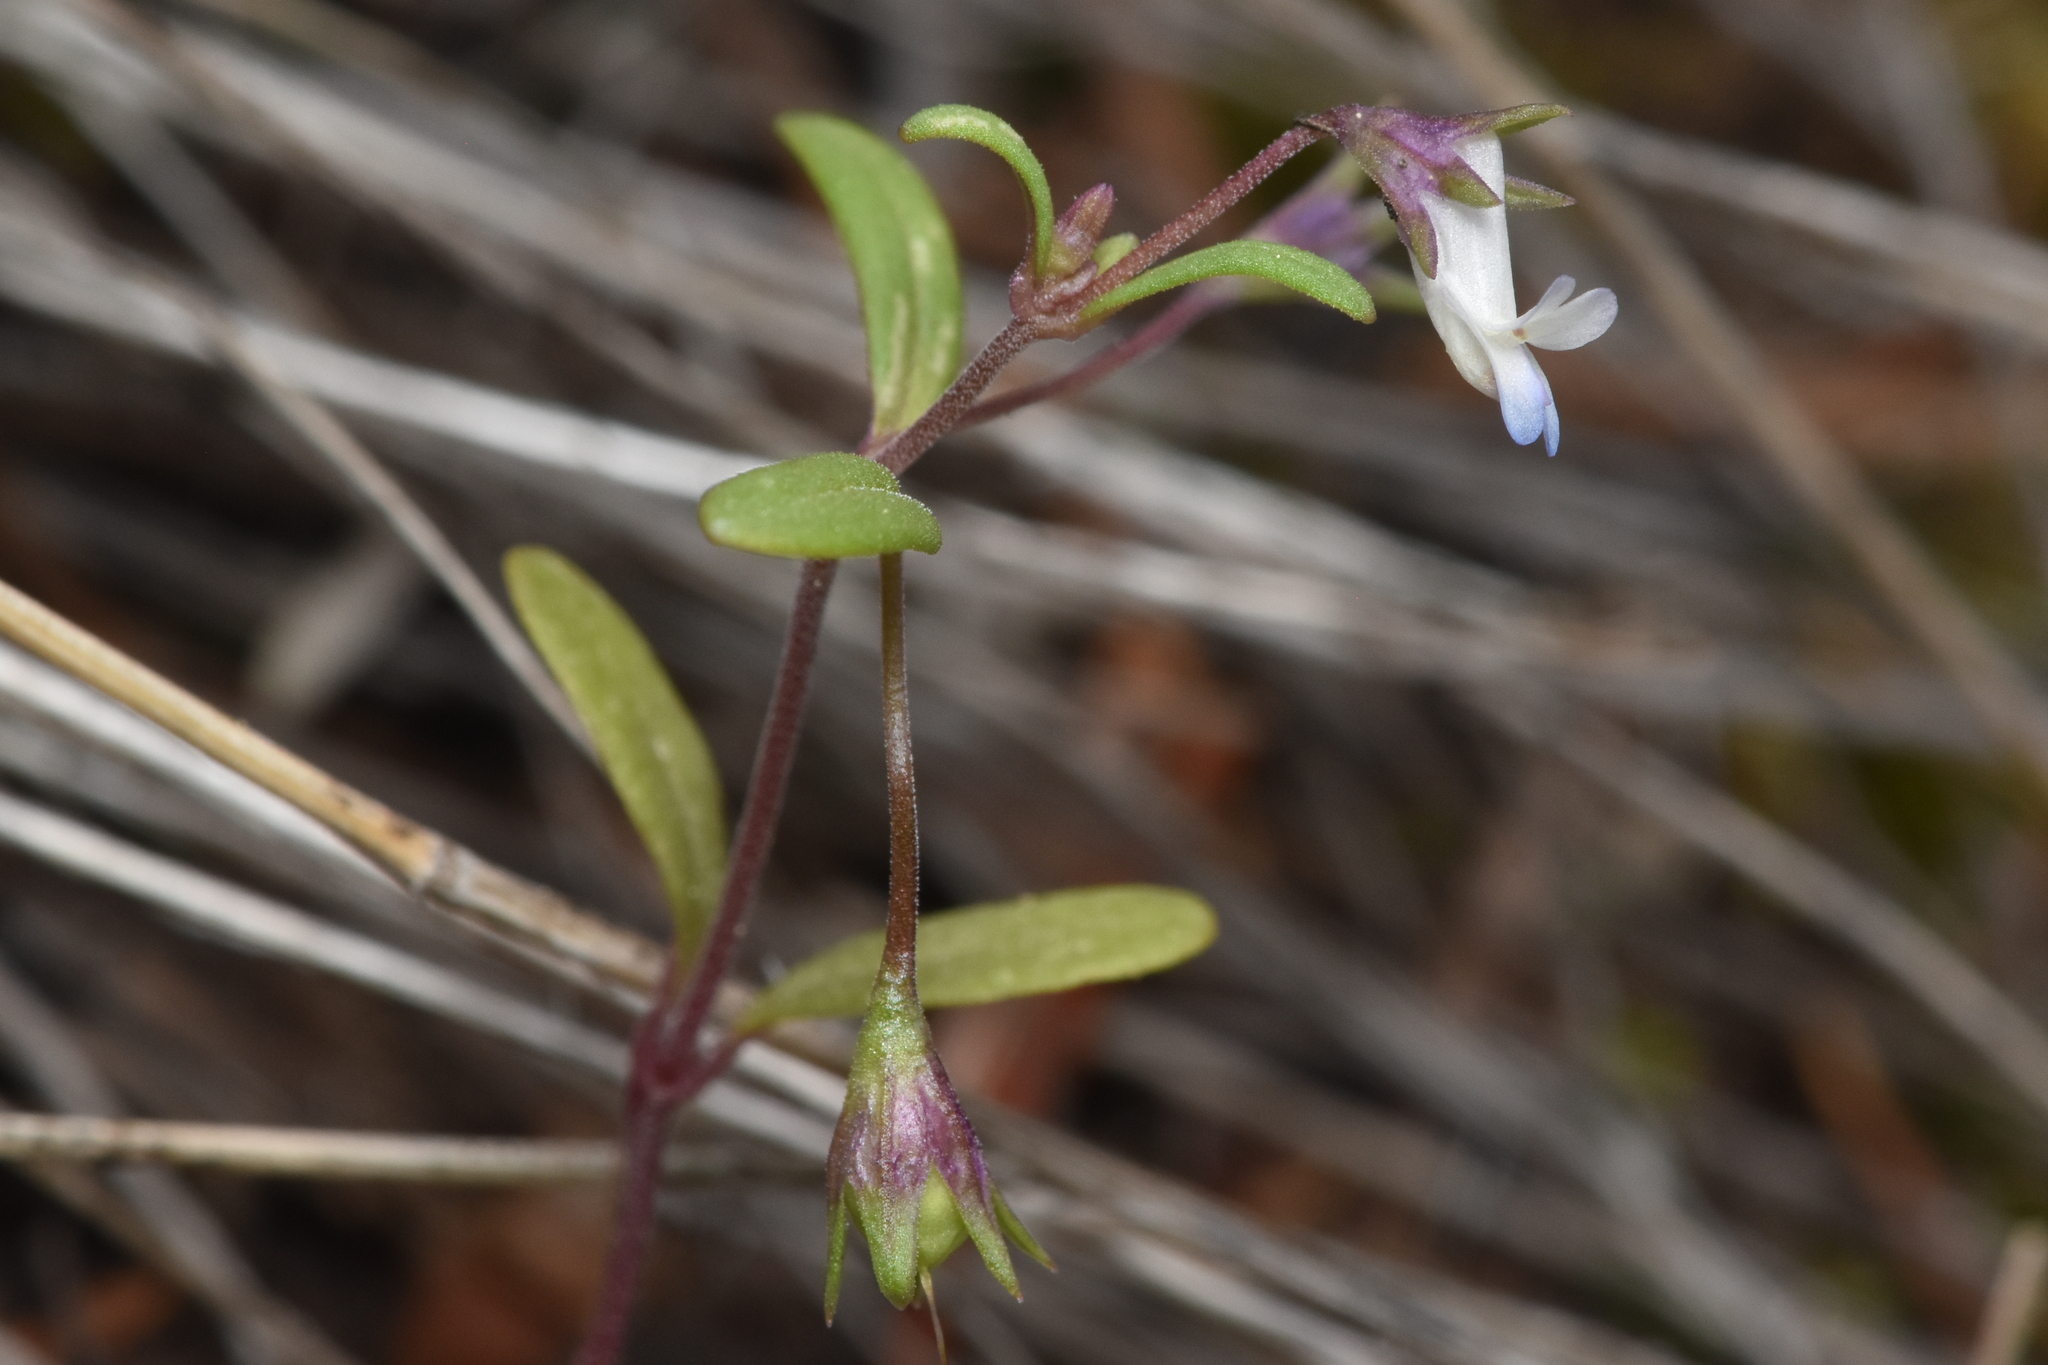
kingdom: Plantae
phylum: Tracheophyta
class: Magnoliopsida
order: Lamiales
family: Plantaginaceae
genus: Collinsia
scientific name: Collinsia parviflora
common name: Blue-lips
